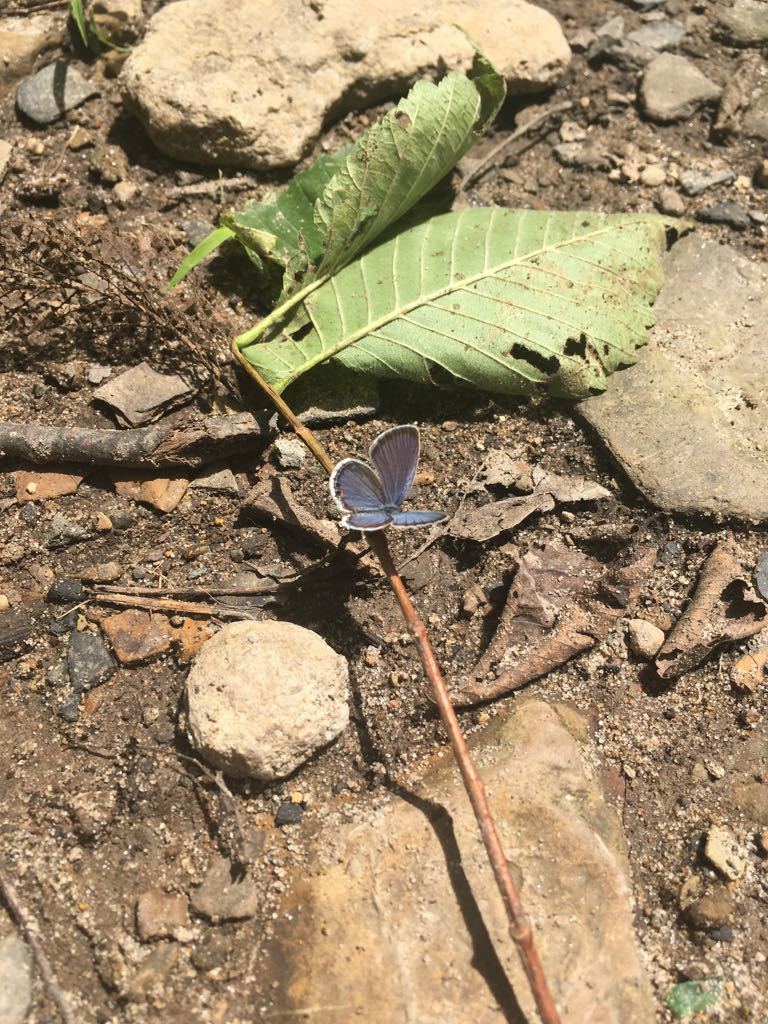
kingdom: Animalia
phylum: Arthropoda
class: Insecta
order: Lepidoptera
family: Lycaenidae
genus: Elkalyce
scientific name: Elkalyce comyntas
